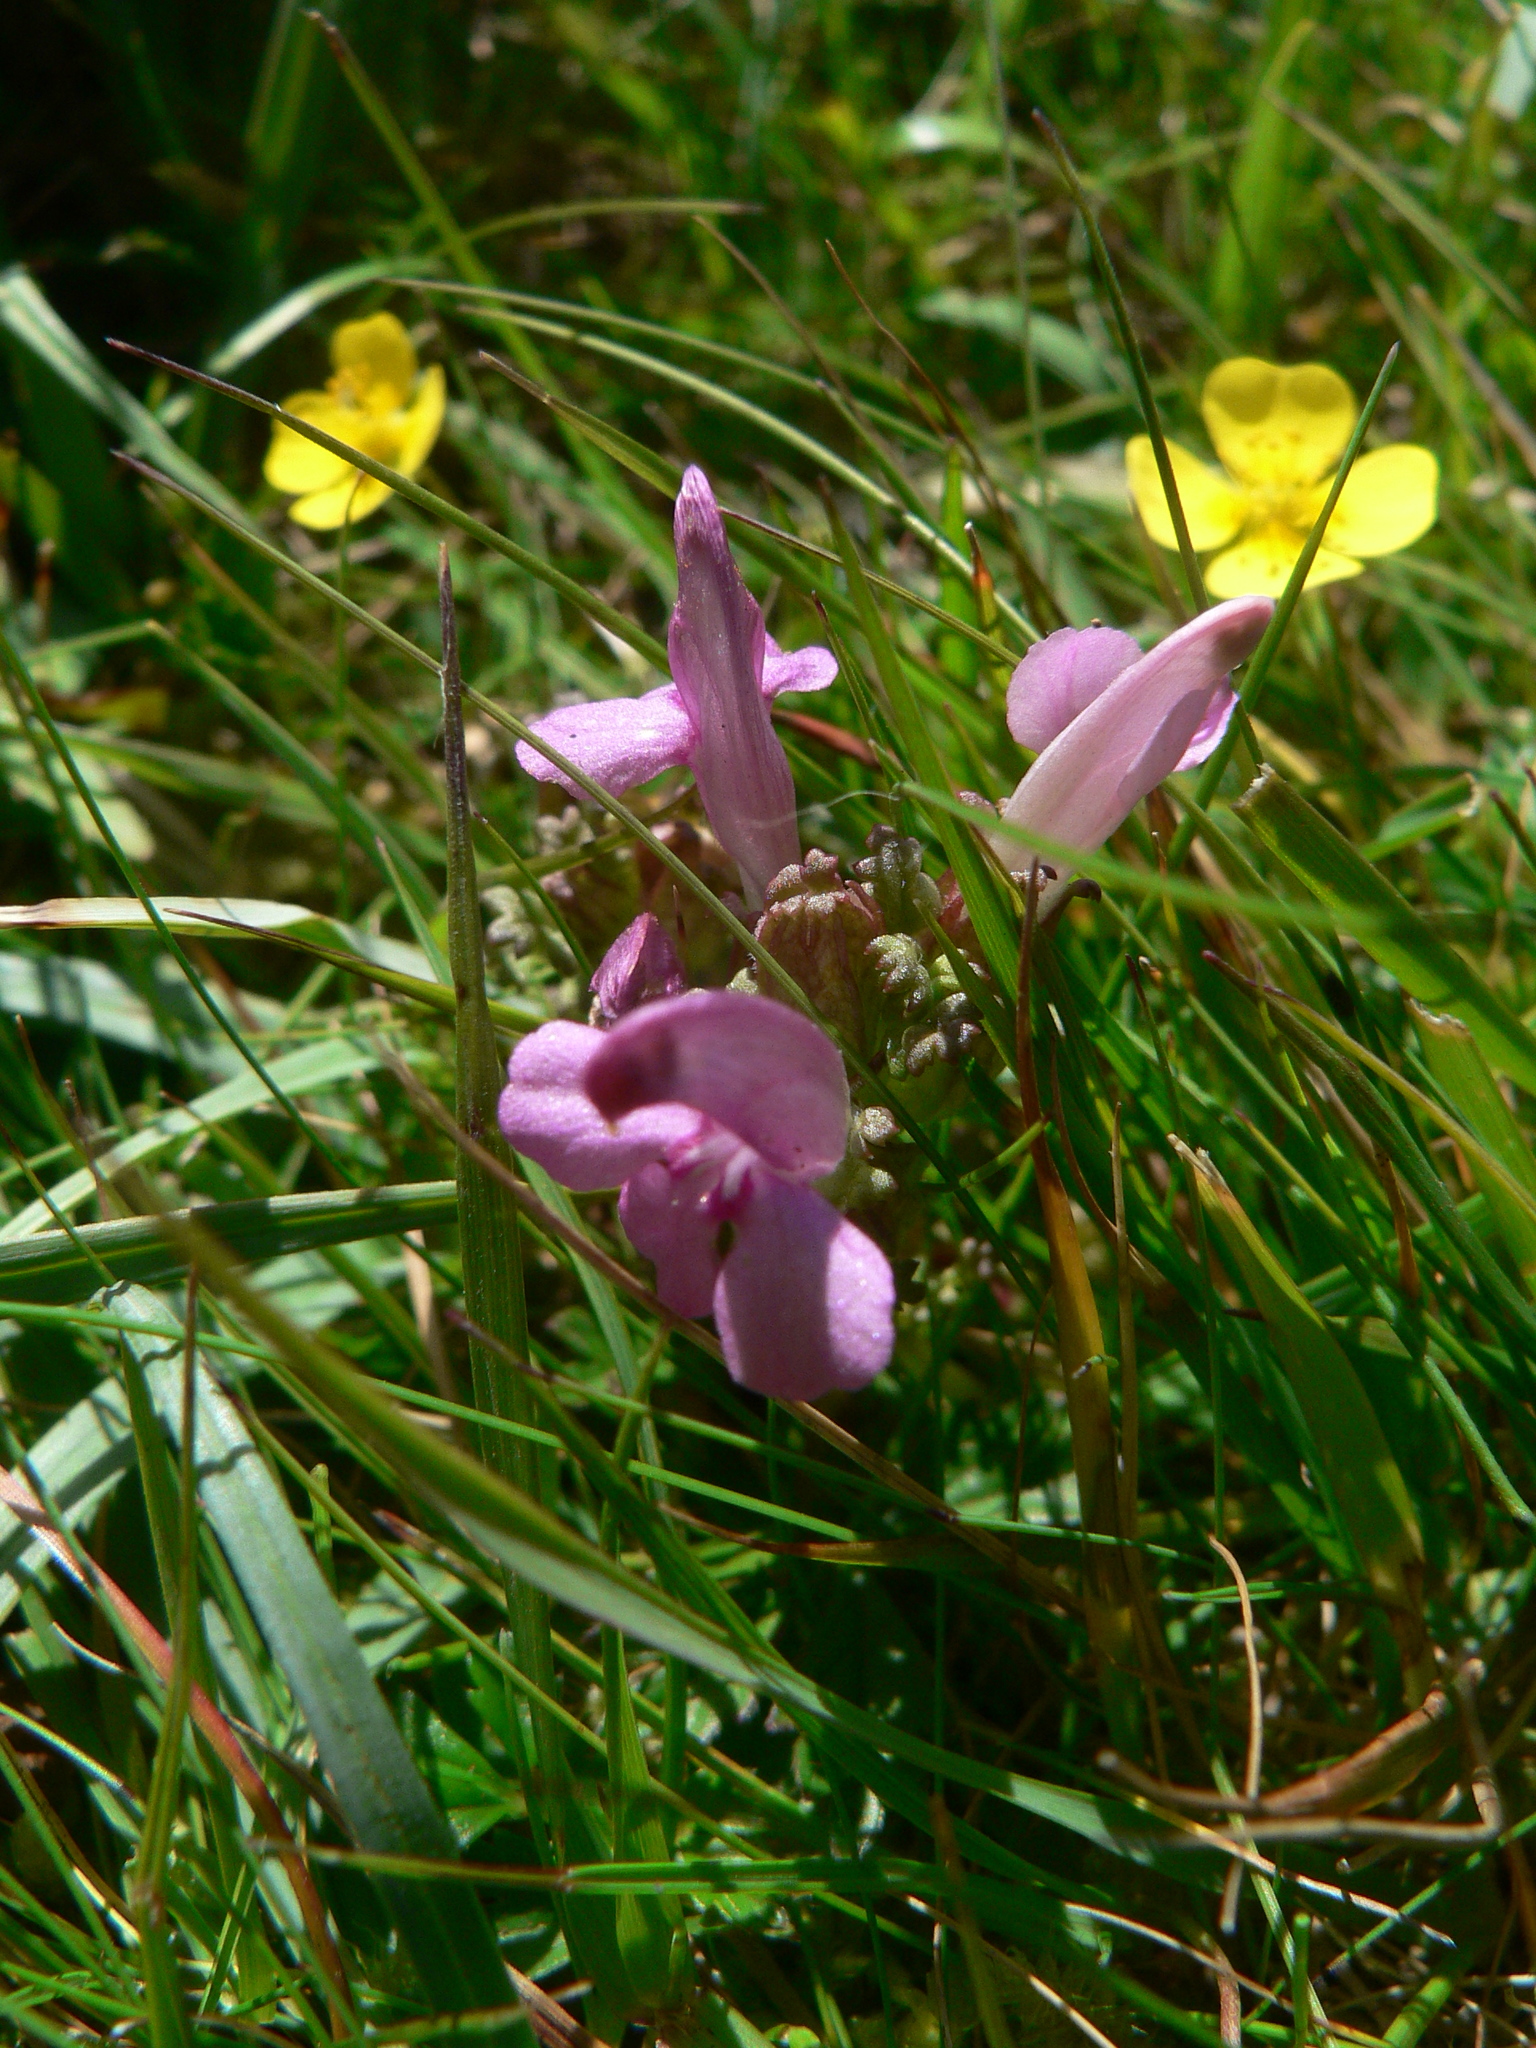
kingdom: Plantae
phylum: Tracheophyta
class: Magnoliopsida
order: Lamiales
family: Orobanchaceae
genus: Pedicularis
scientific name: Pedicularis sylvatica
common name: Lousewort
